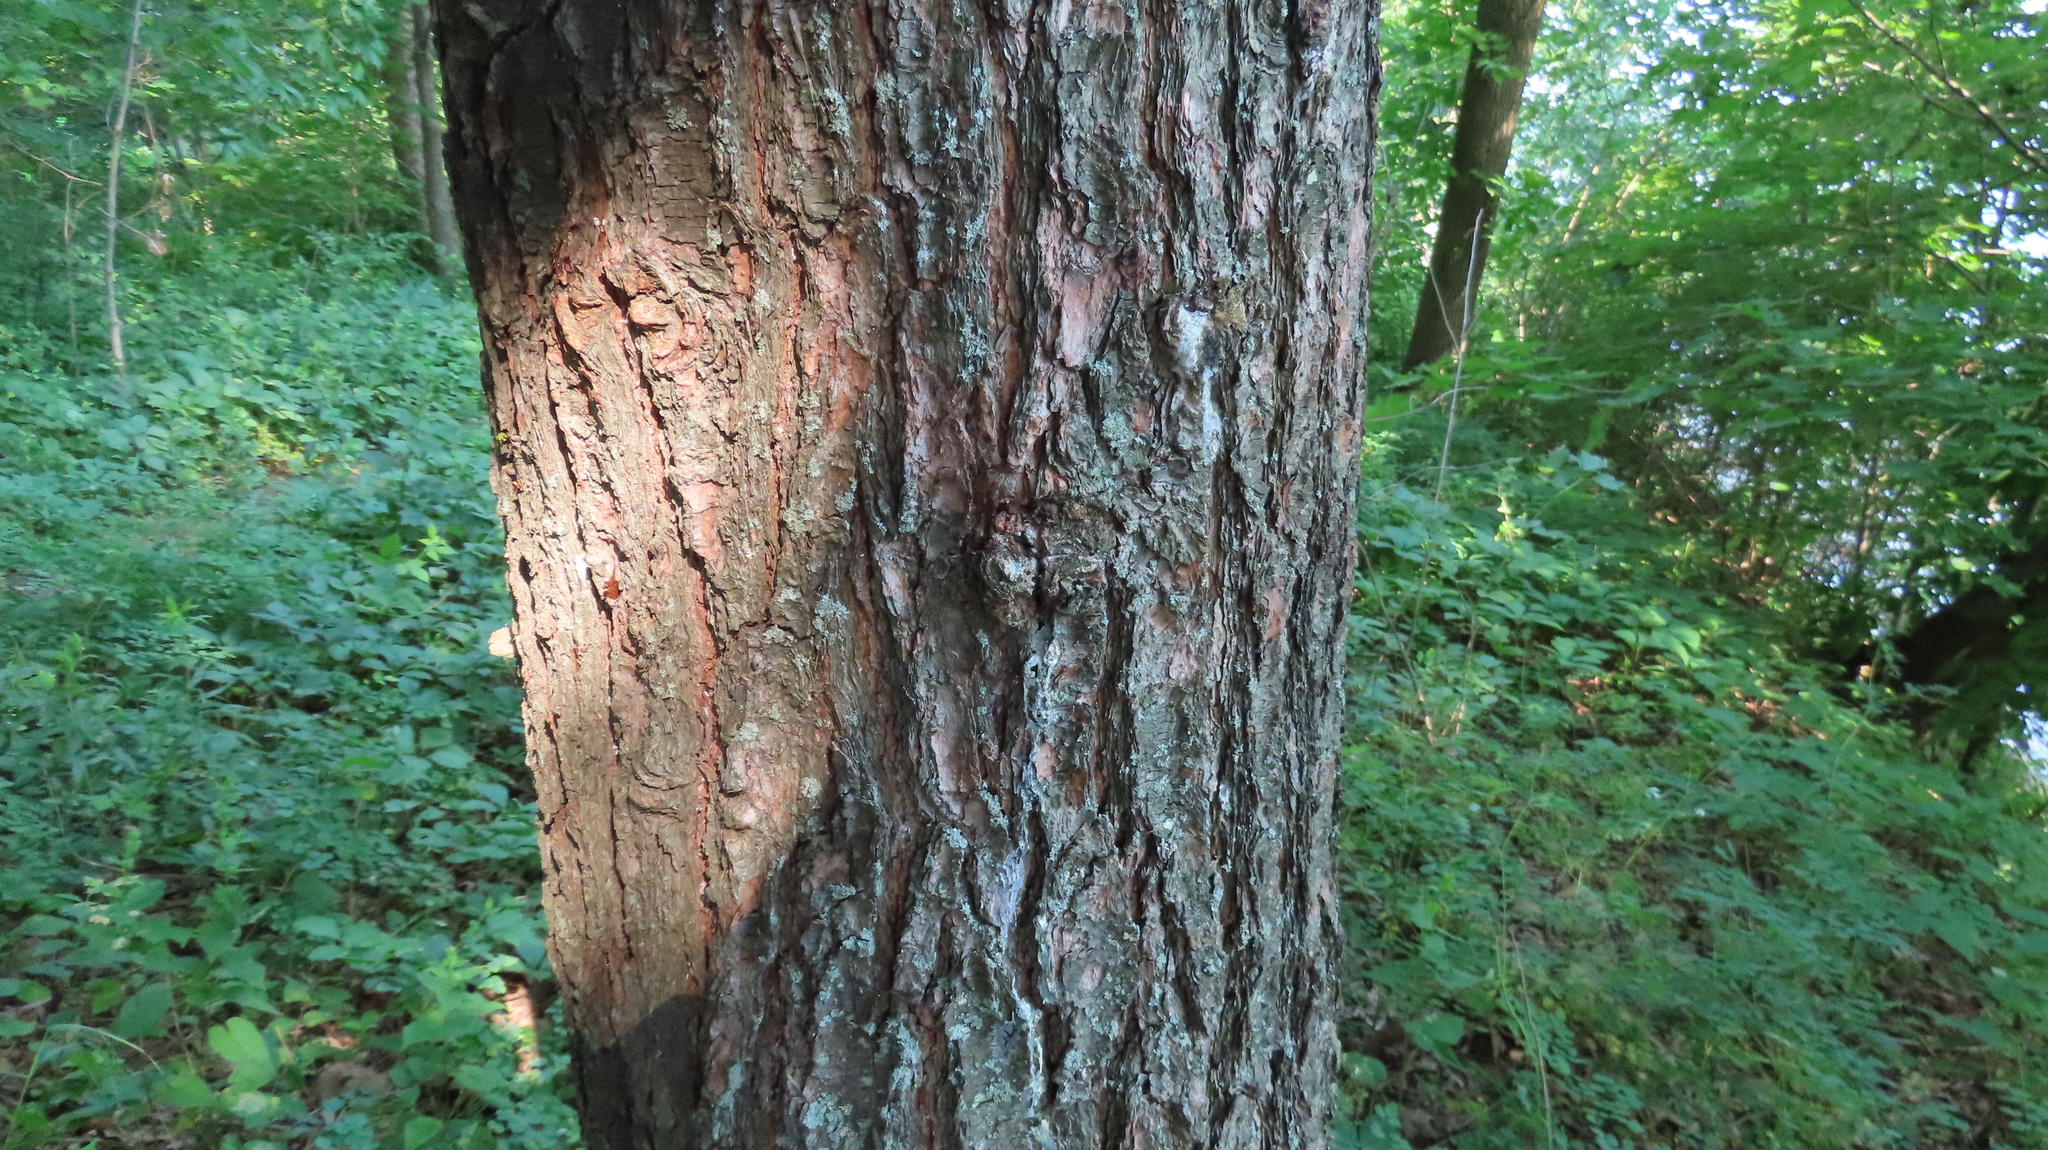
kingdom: Plantae
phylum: Tracheophyta
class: Pinopsida
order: Pinales
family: Pinaceae
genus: Pinus
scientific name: Pinus strobus
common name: Weymouth pine
